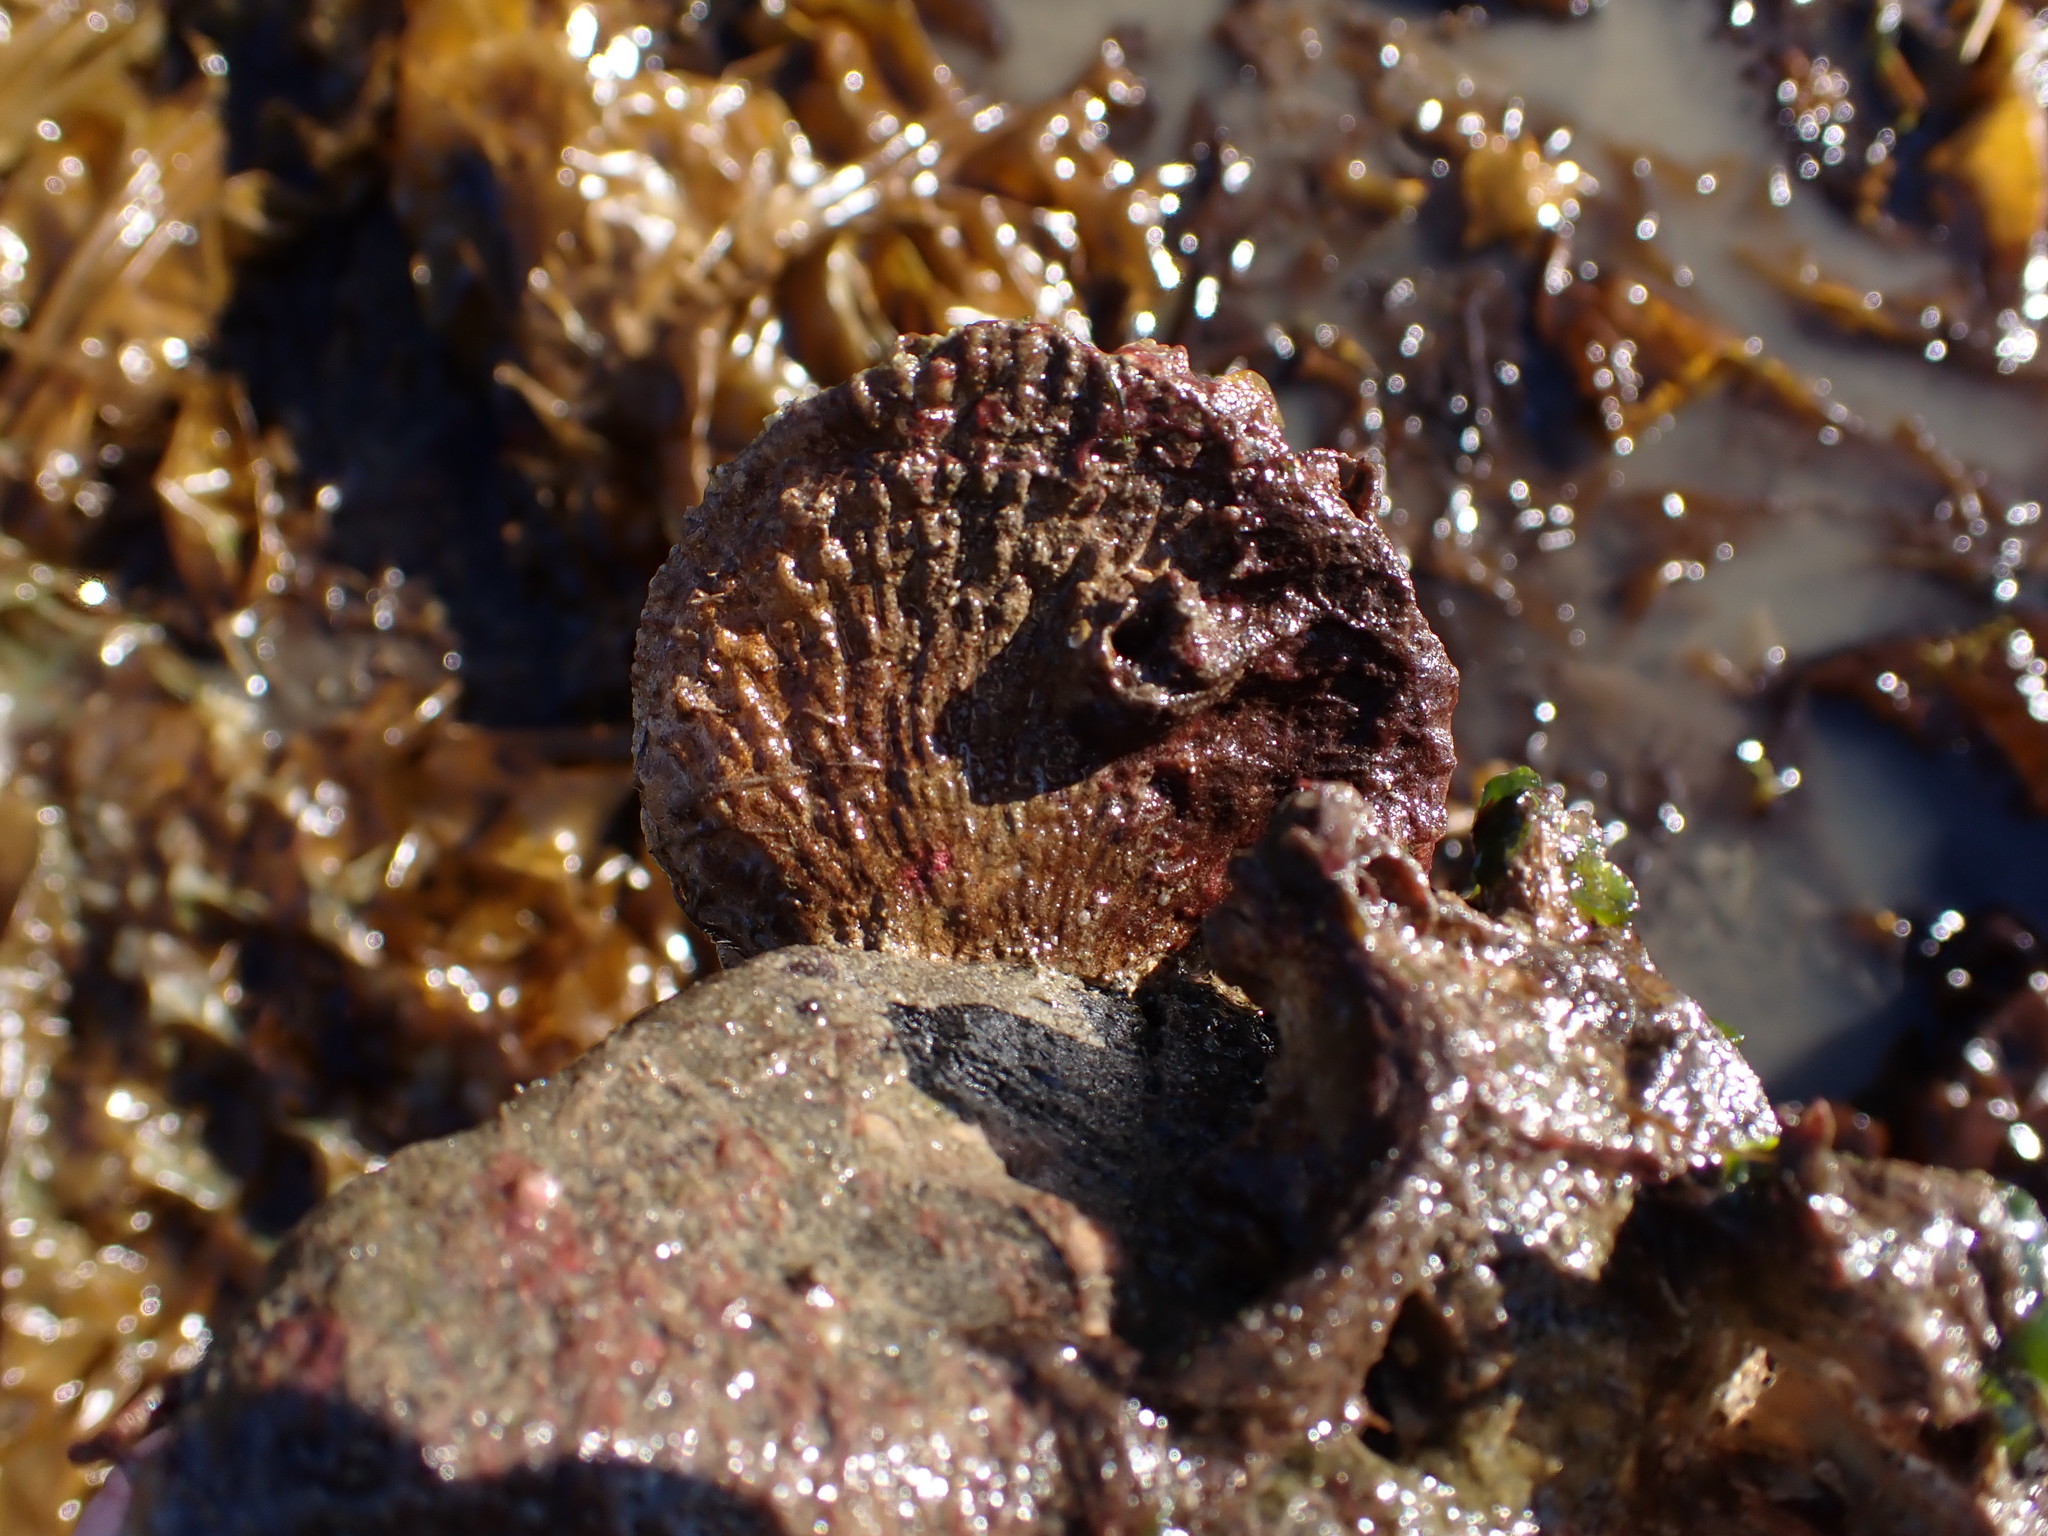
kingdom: Animalia
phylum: Mollusca
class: Bivalvia
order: Pectinida
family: Anomiidae
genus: Pododesmus
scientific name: Pododesmus macrochisma
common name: Alaska jingle
